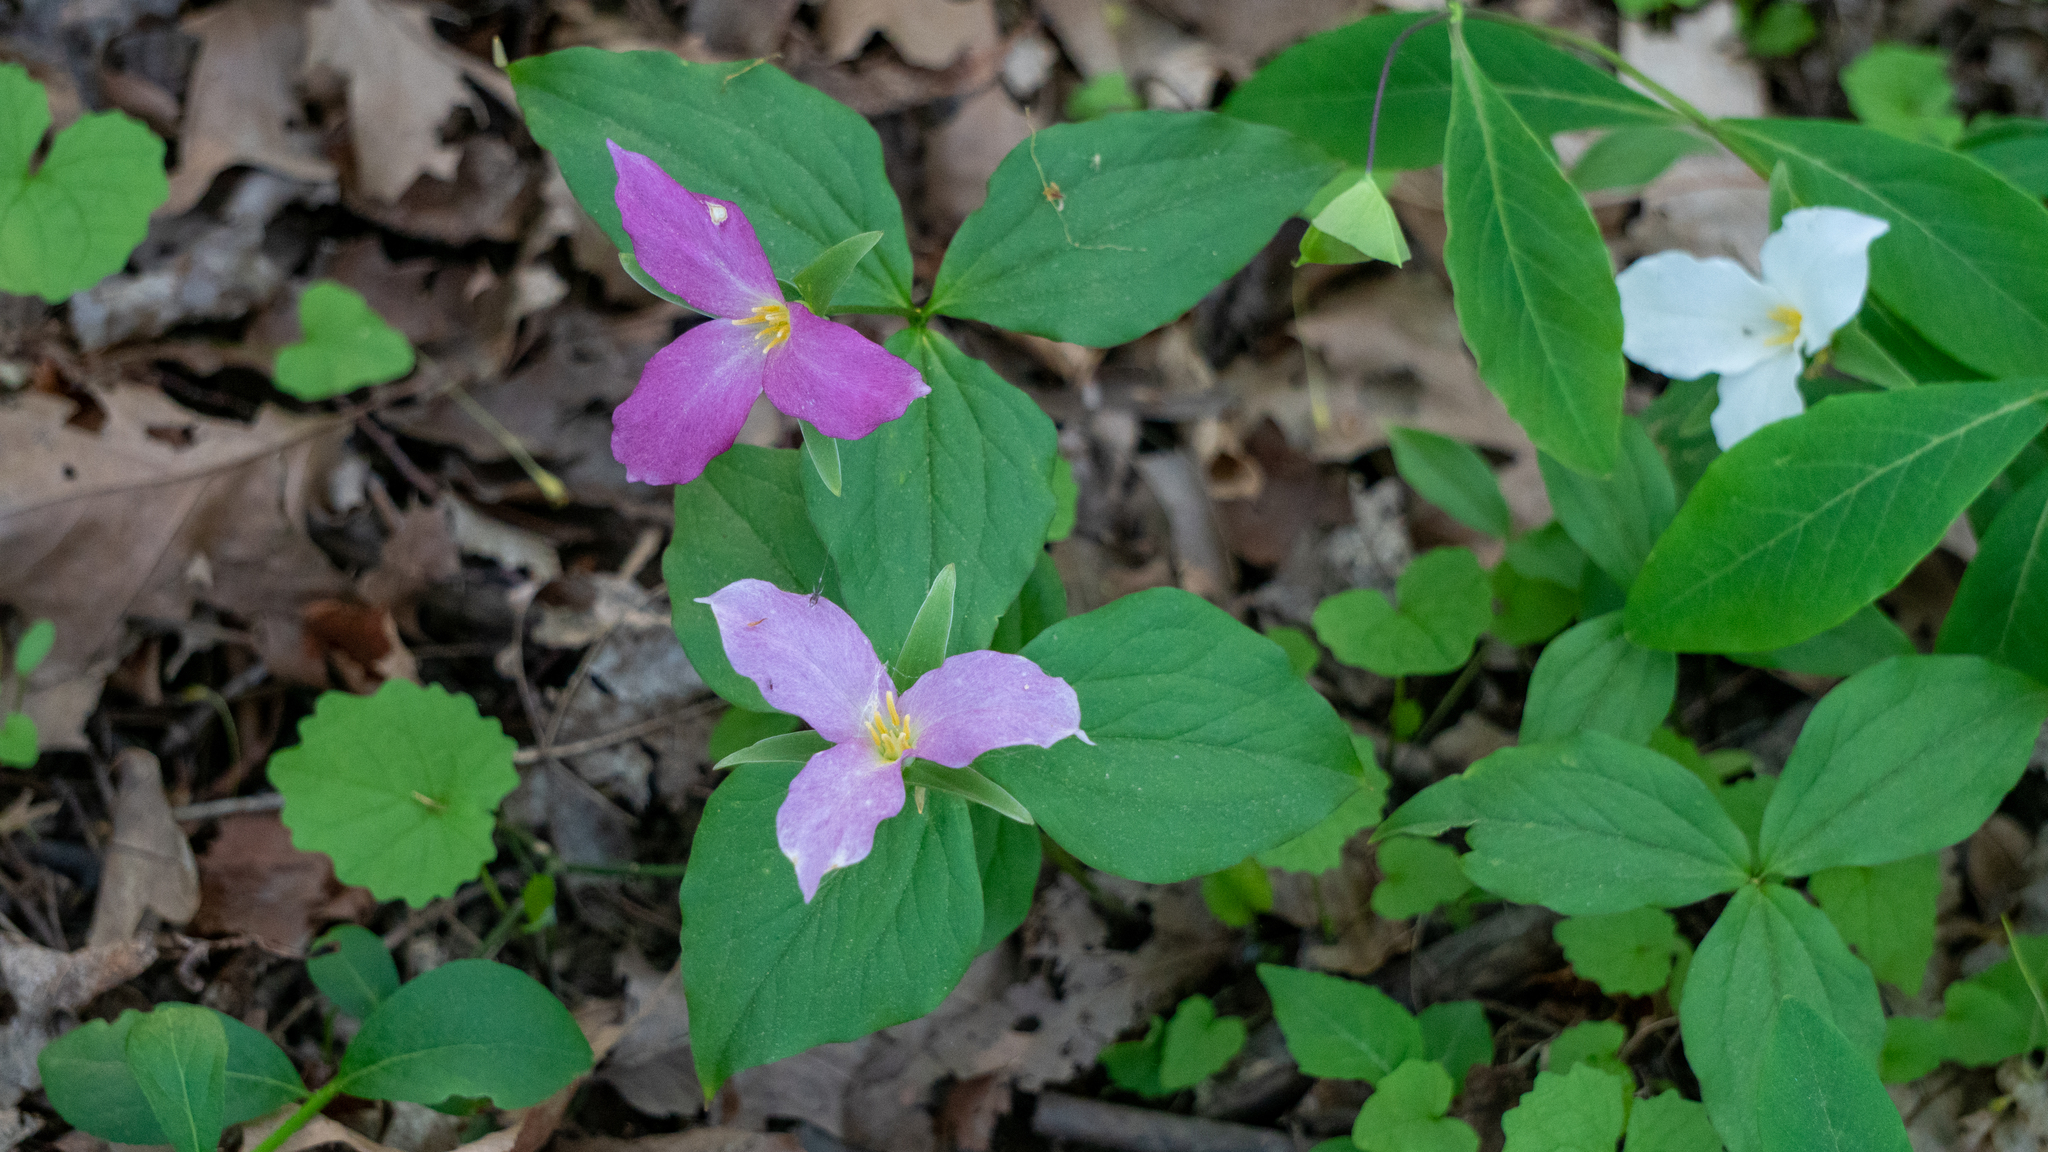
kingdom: Plantae
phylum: Tracheophyta
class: Liliopsida
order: Liliales
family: Melanthiaceae
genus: Trillium
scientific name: Trillium grandiflorum
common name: Great white trillium
